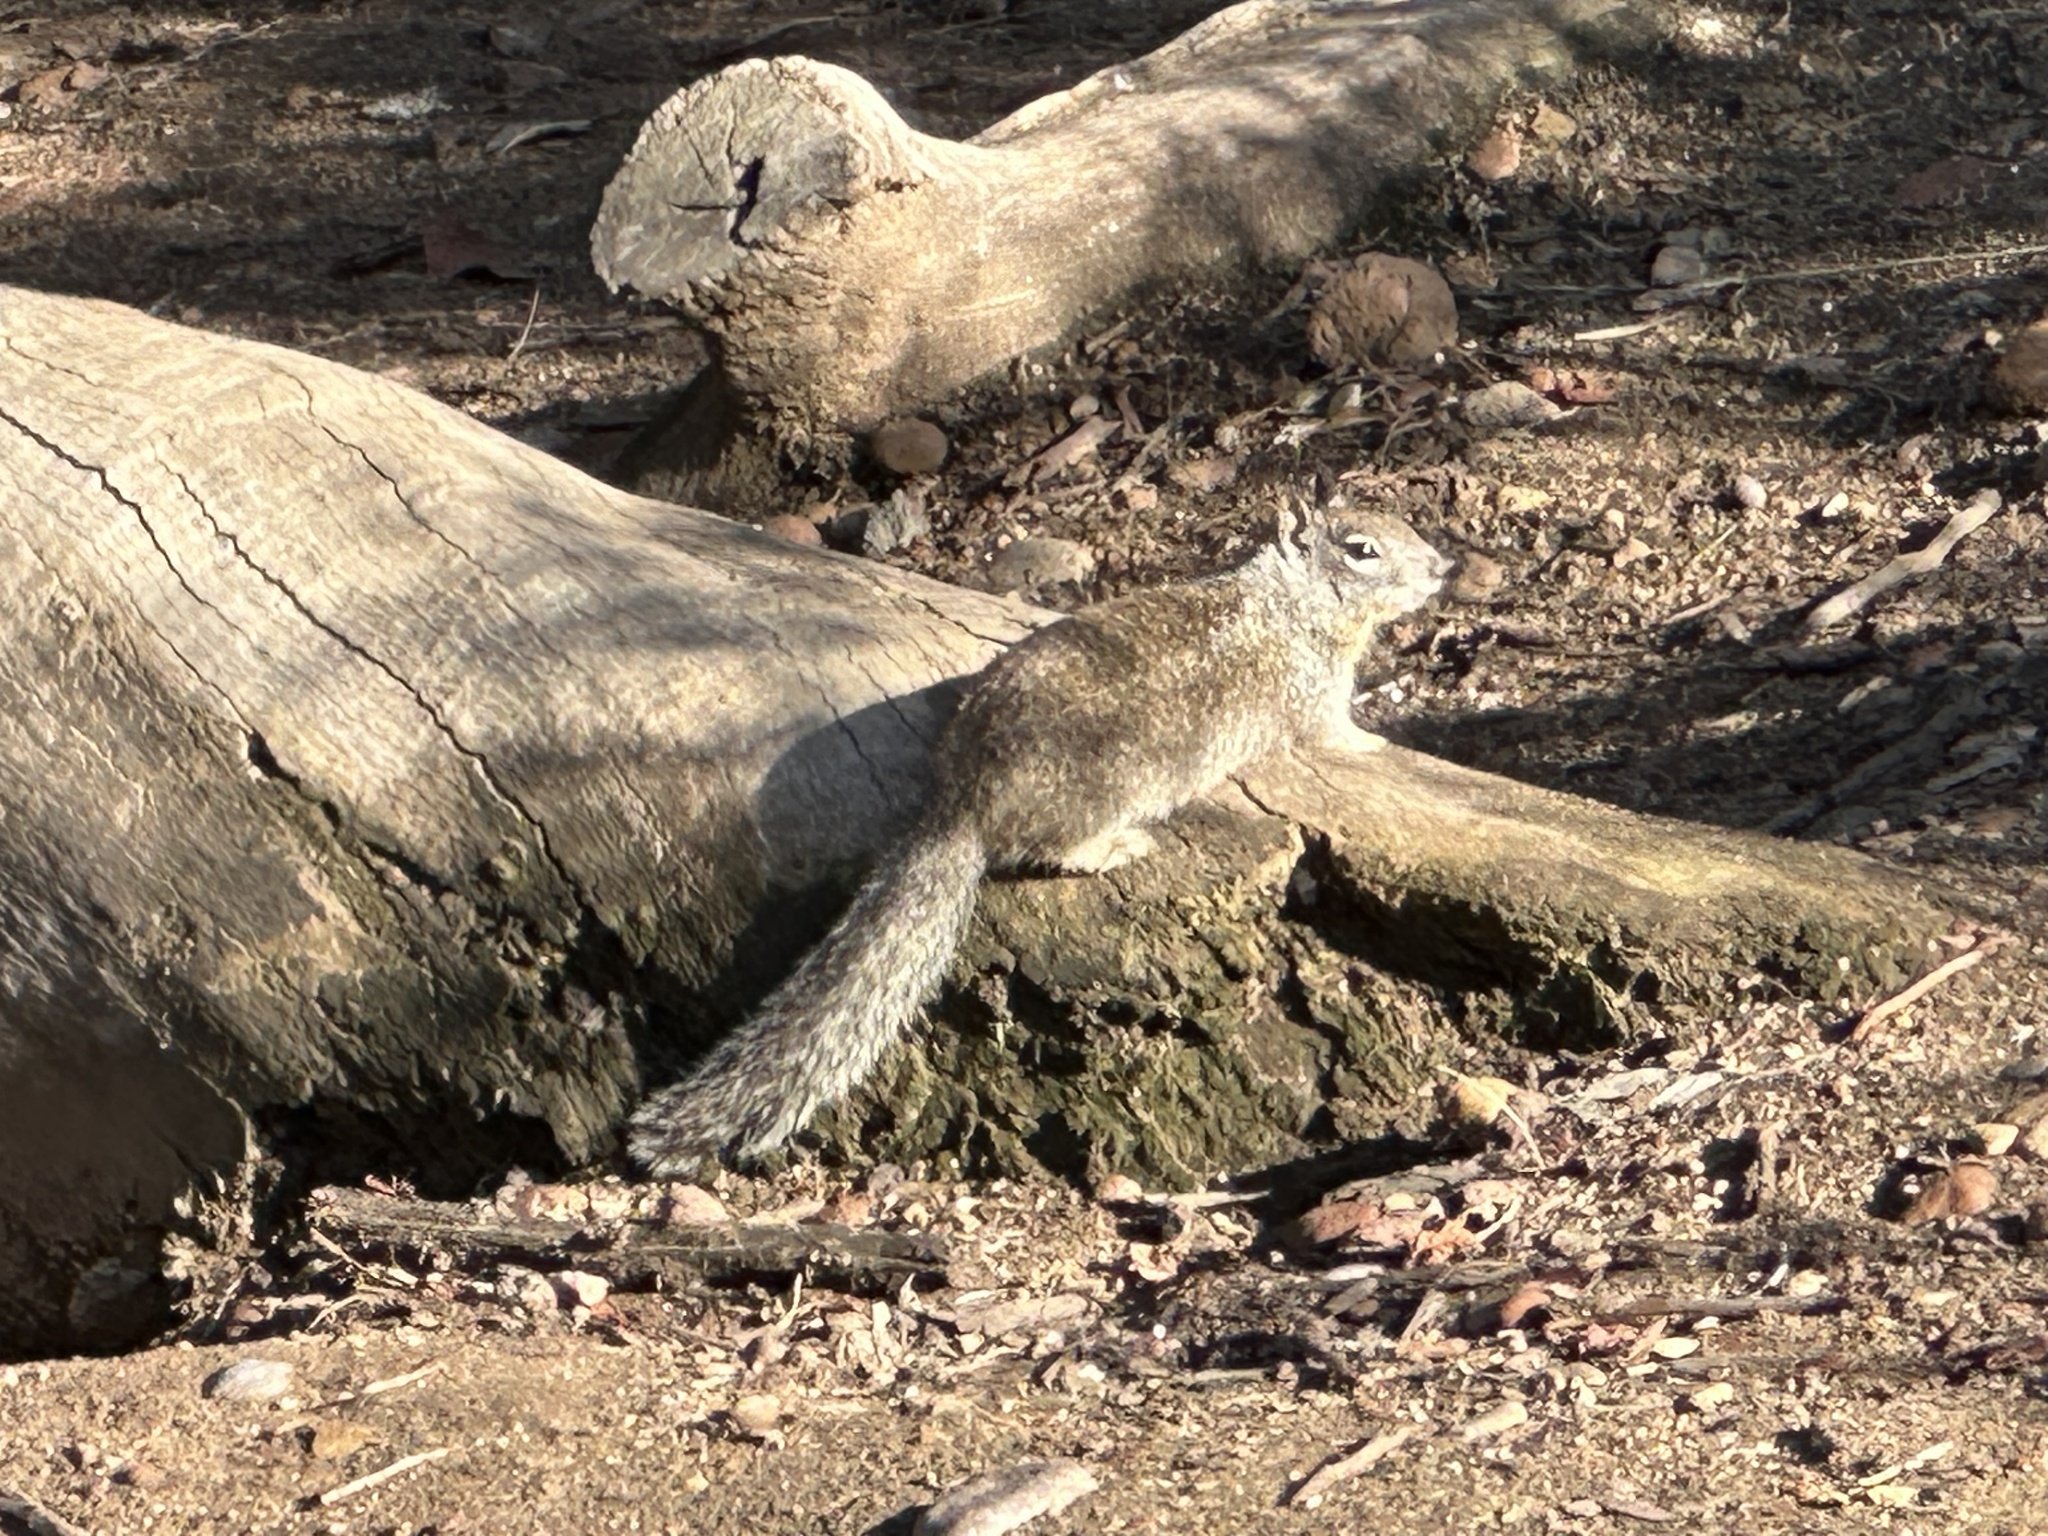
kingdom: Animalia
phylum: Chordata
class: Mammalia
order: Rodentia
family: Sciuridae
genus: Otospermophilus
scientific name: Otospermophilus beecheyi
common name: California ground squirrel
